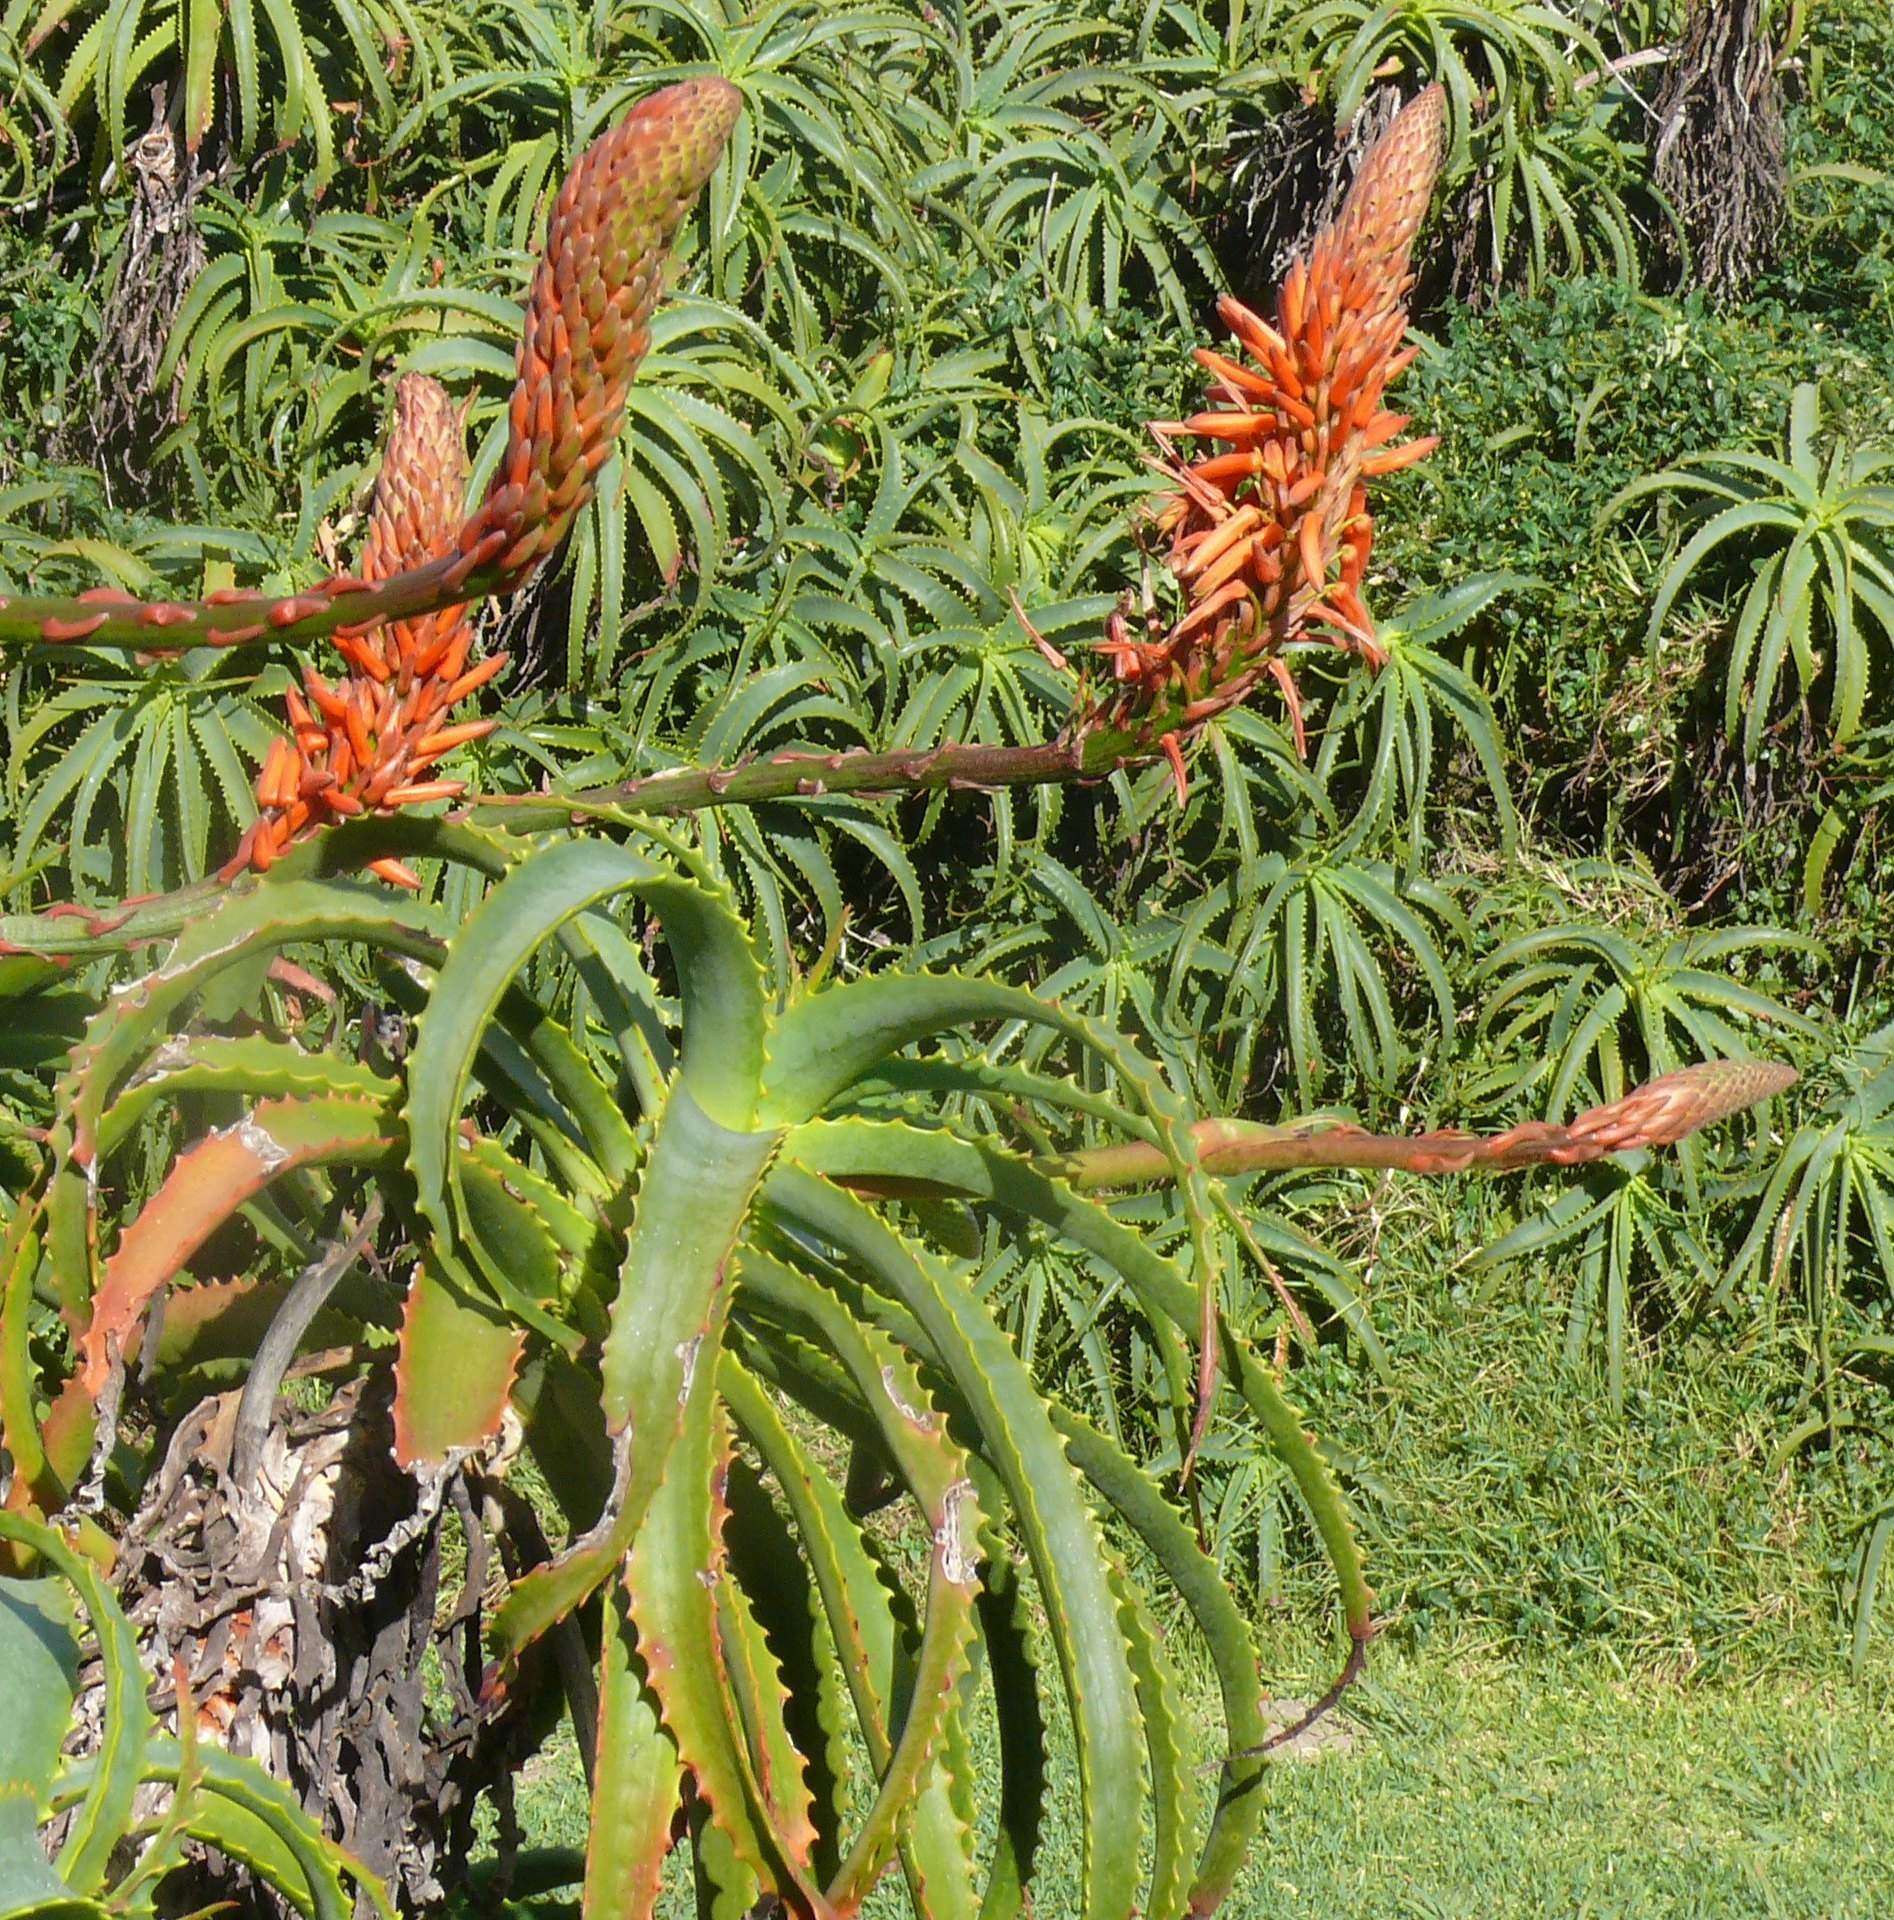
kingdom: Plantae
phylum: Tracheophyta
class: Liliopsida
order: Asparagales
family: Asphodelaceae
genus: Aloe
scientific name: Aloe arborescens
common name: Candelabra aloe
